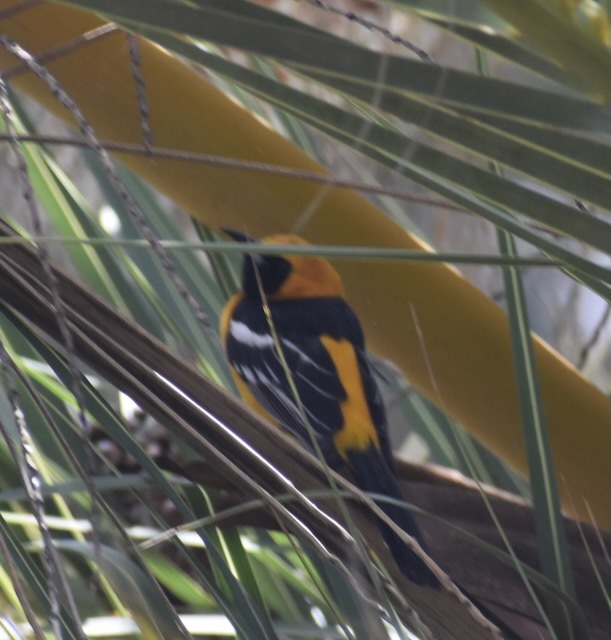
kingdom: Animalia
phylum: Chordata
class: Aves
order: Passeriformes
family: Icteridae
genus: Icterus
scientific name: Icterus cucullatus
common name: Hooded oriole
